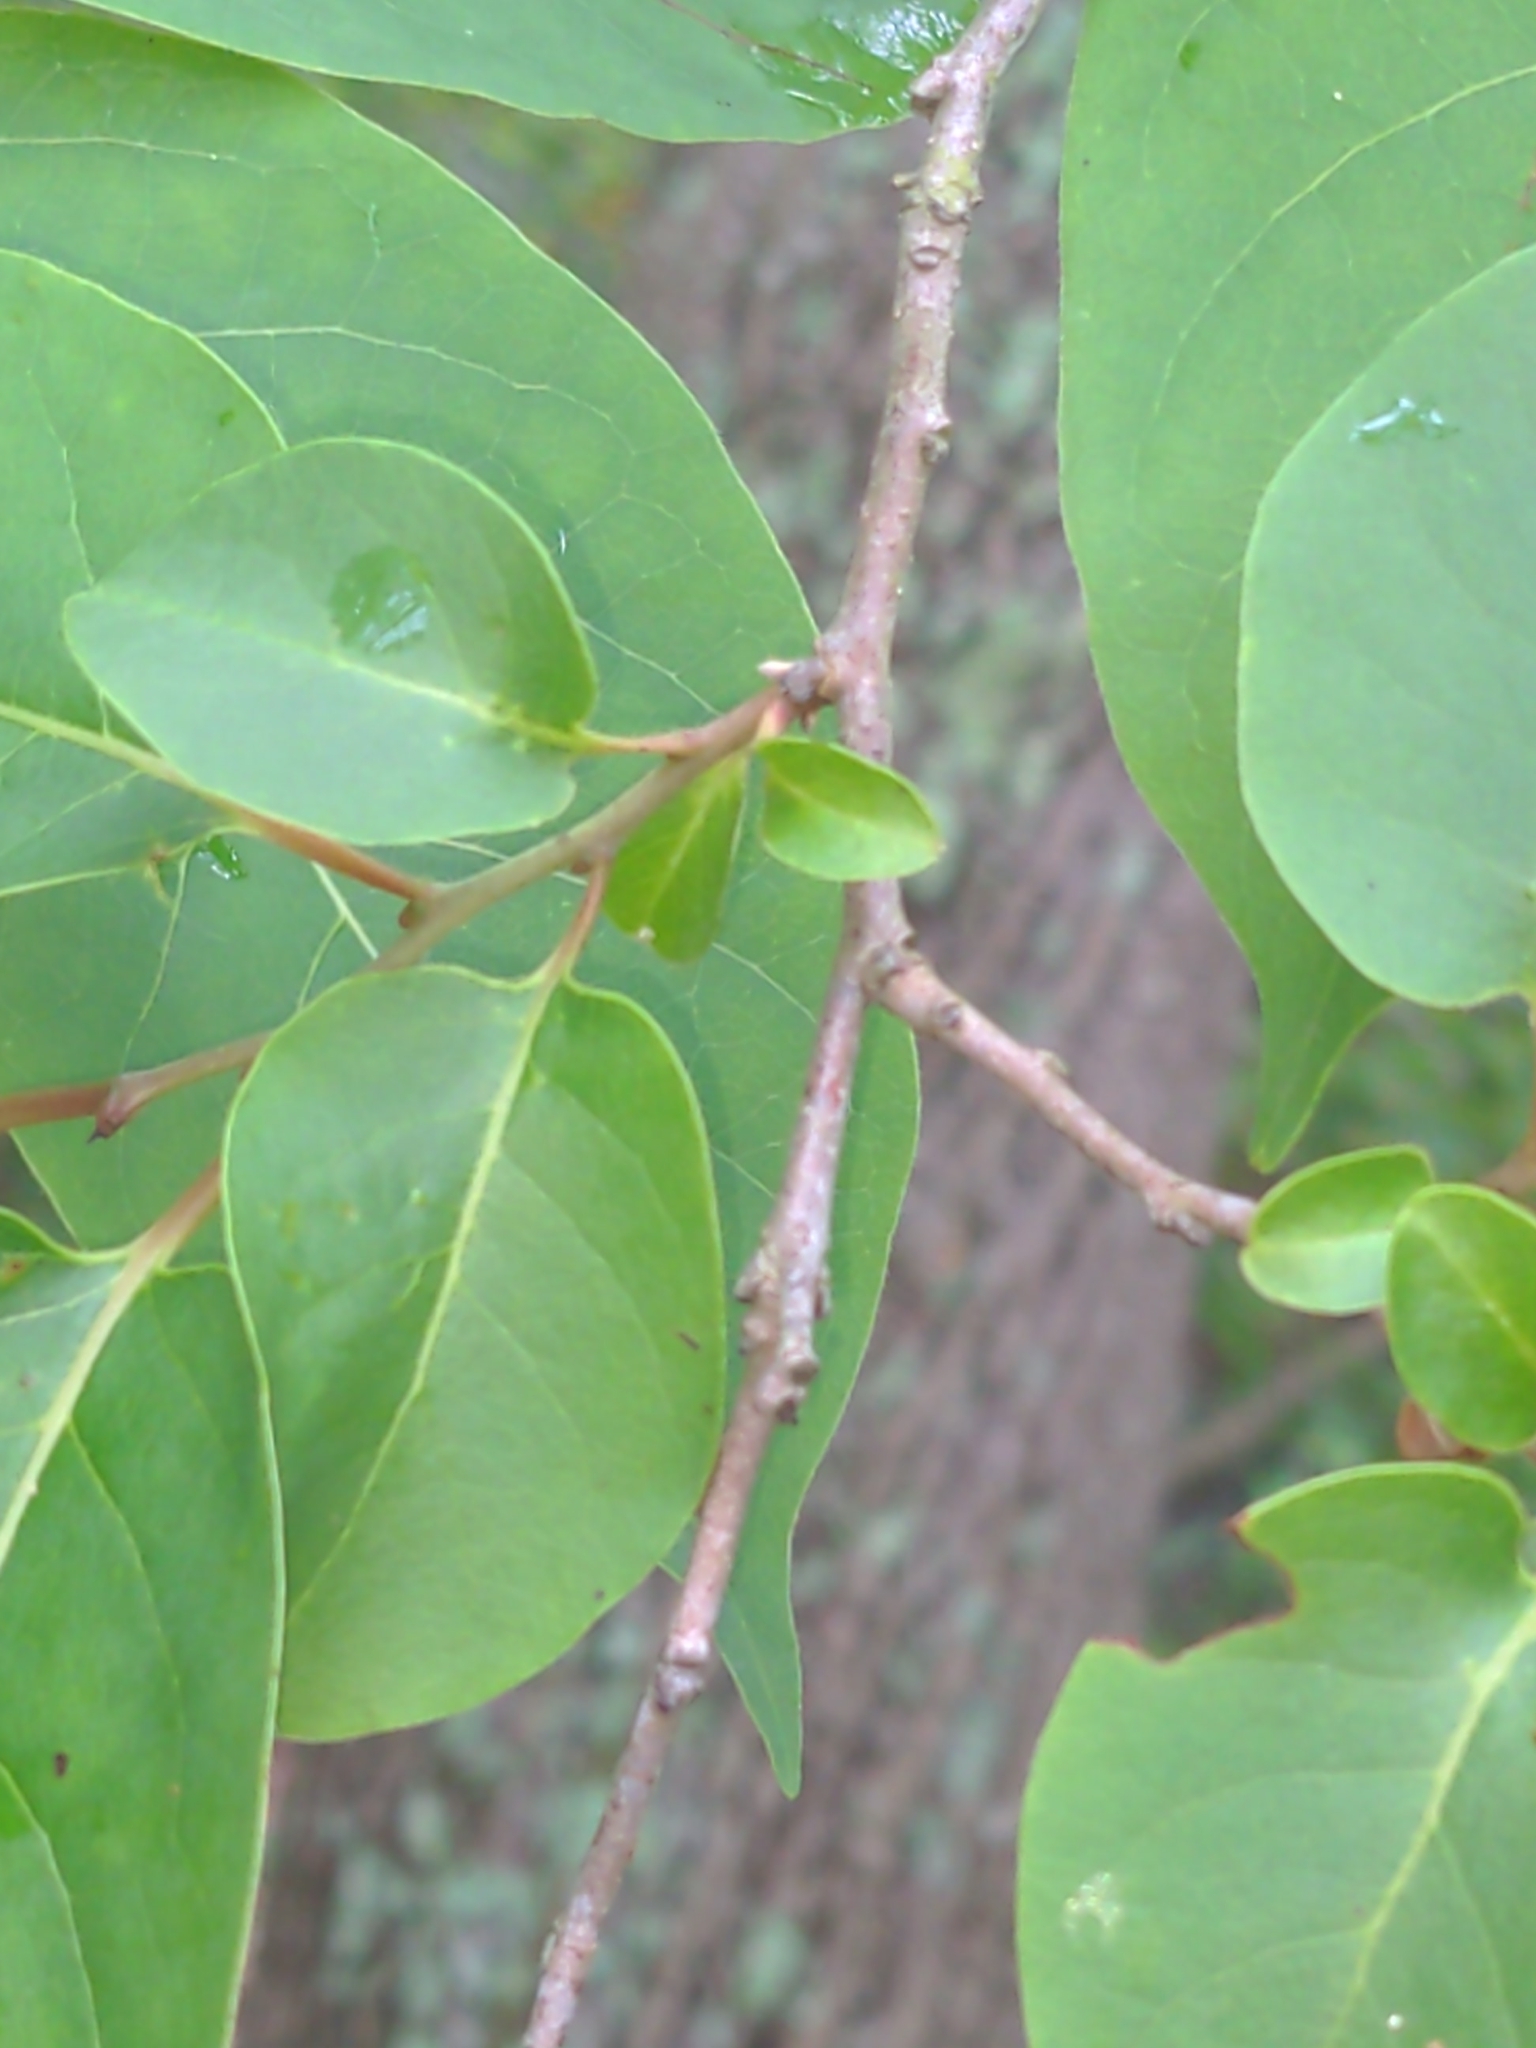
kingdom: Plantae
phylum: Tracheophyta
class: Magnoliopsida
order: Ericales
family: Ebenaceae
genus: Diospyros
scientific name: Diospyros virginiana
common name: Persimmon
